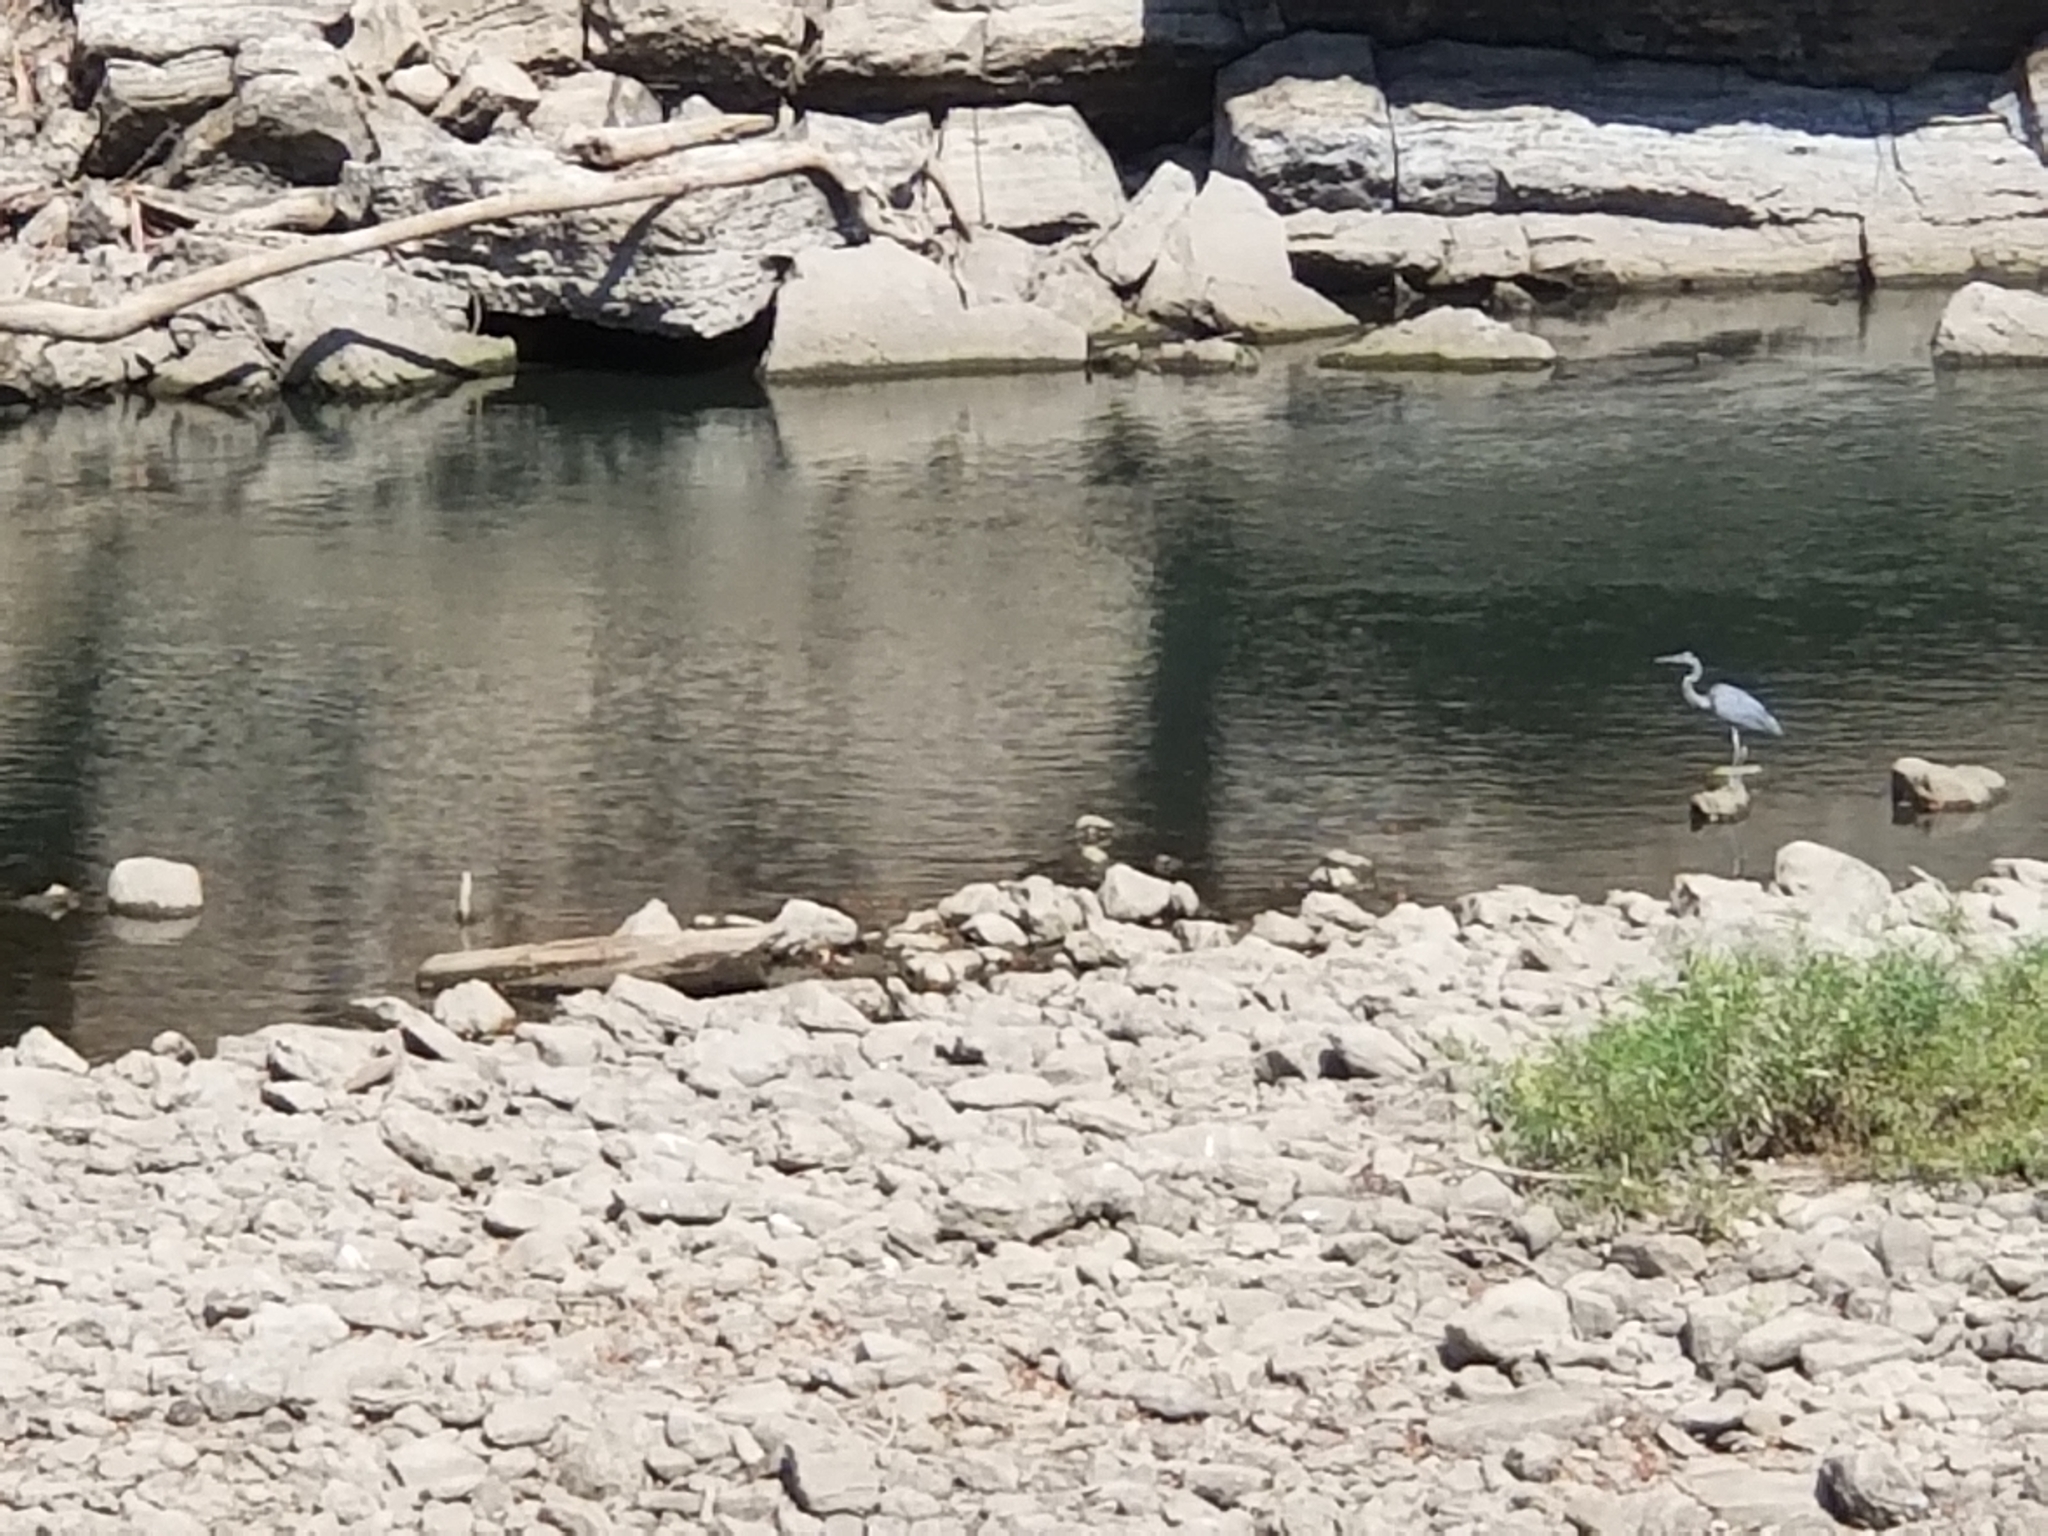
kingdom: Animalia
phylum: Chordata
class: Aves
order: Pelecaniformes
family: Ardeidae
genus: Ardea
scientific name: Ardea herodias
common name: Great blue heron
